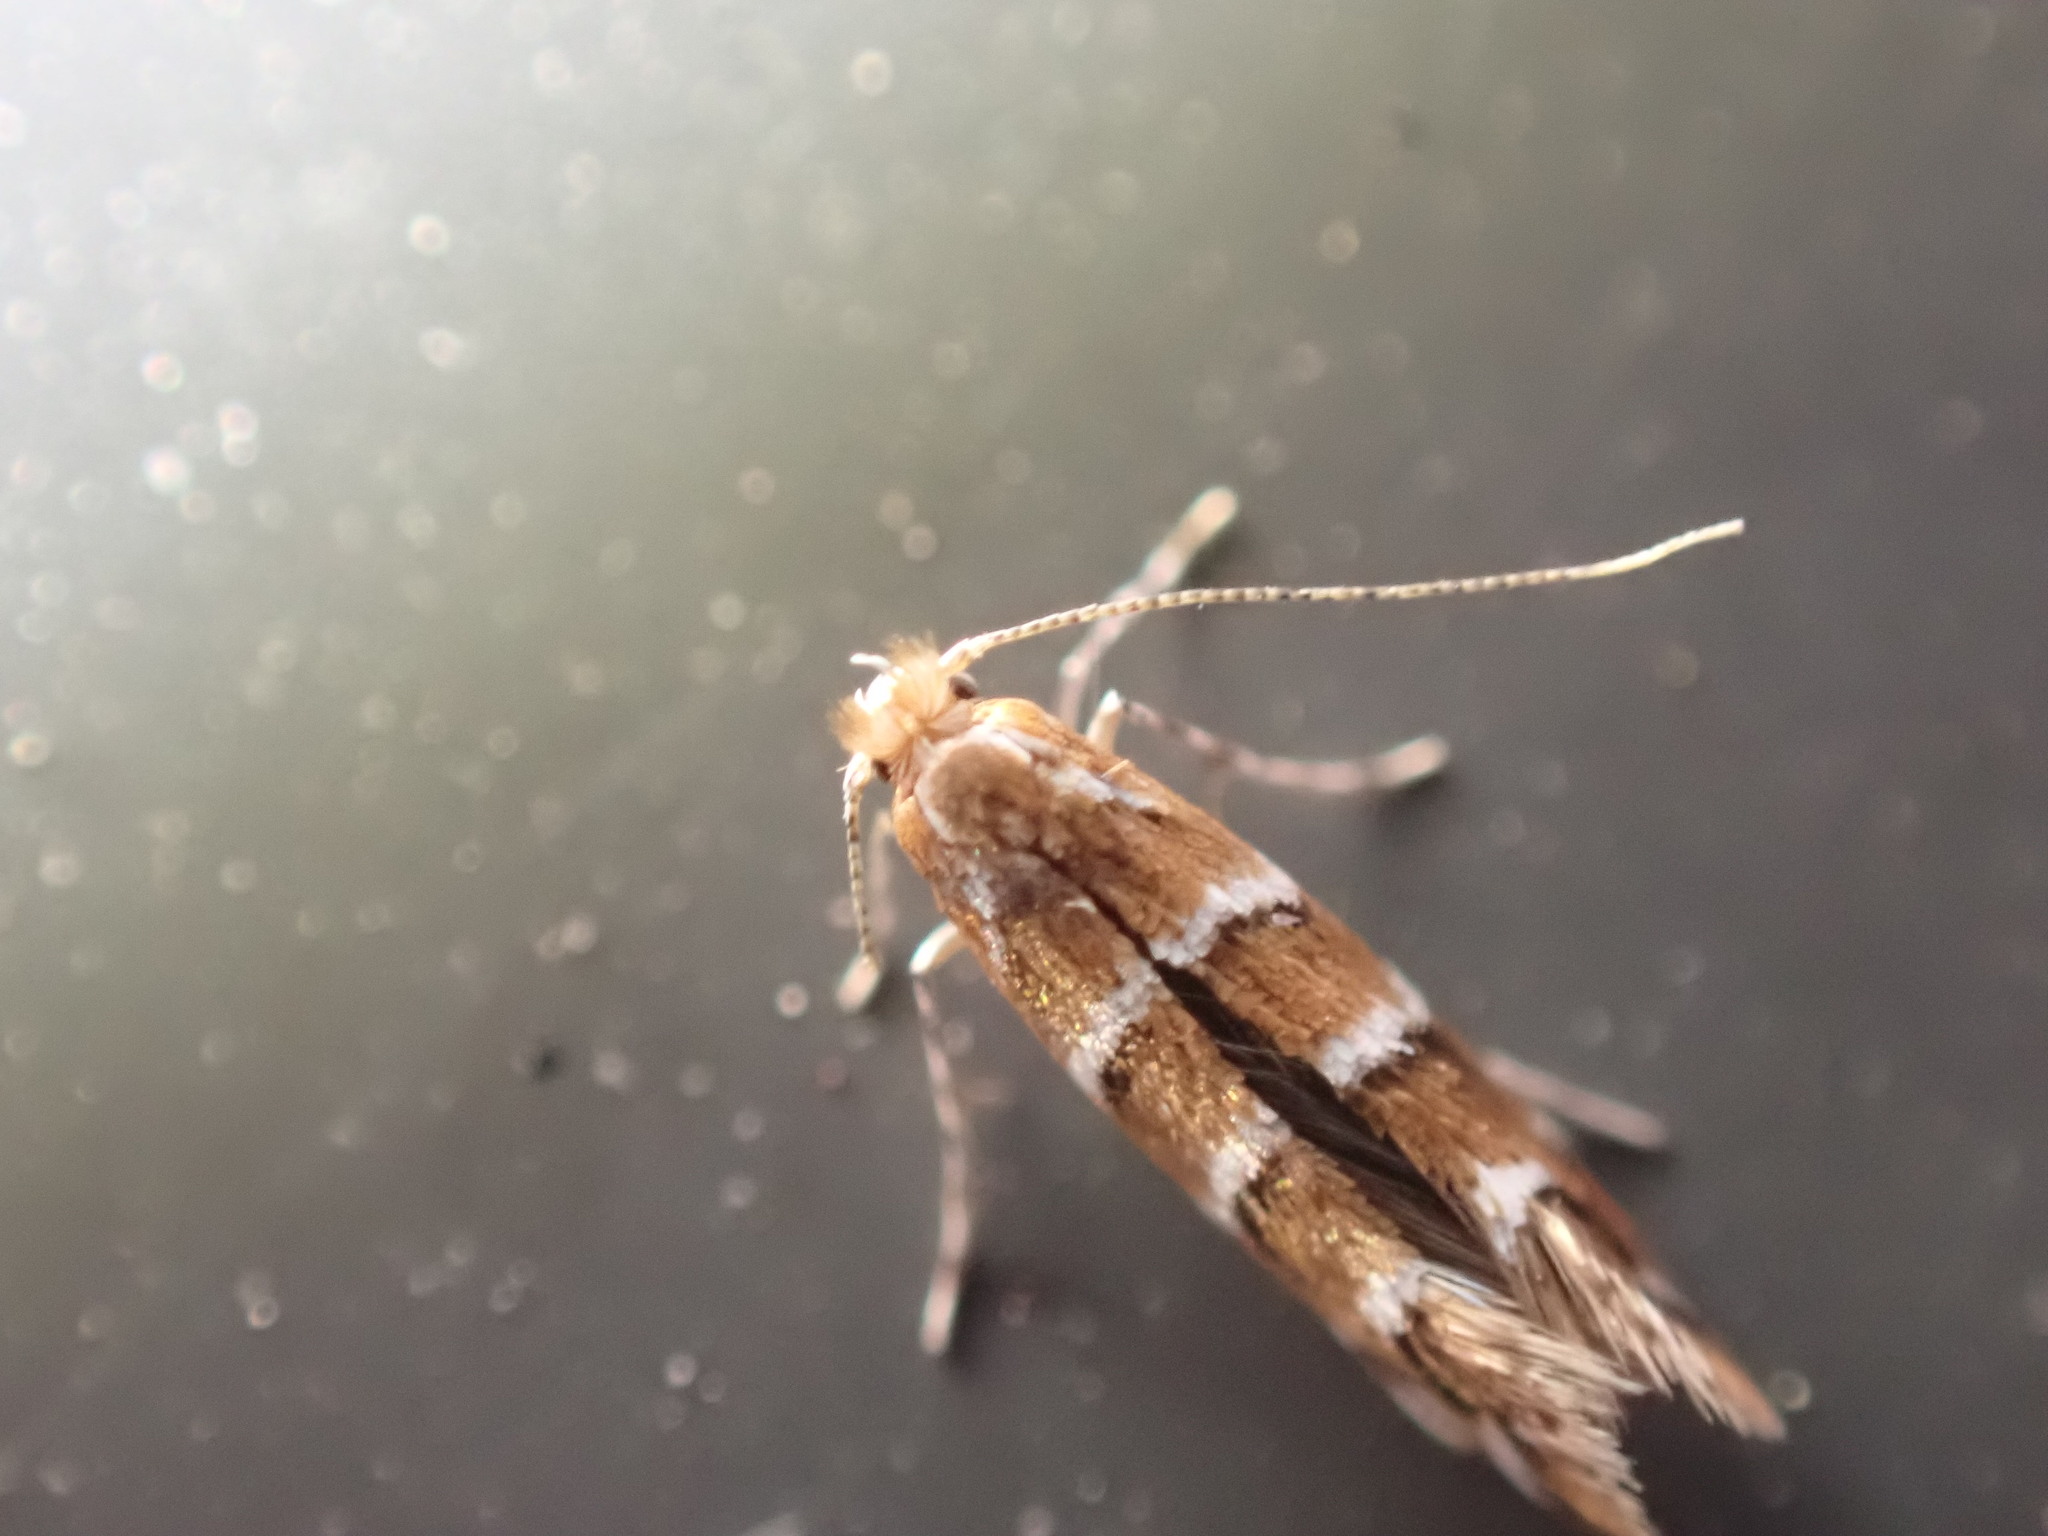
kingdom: Animalia
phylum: Arthropoda
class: Insecta
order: Lepidoptera
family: Gracillariidae
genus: Cameraria
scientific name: Cameraria ohridella
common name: Horse-chestnut leaf-miner
